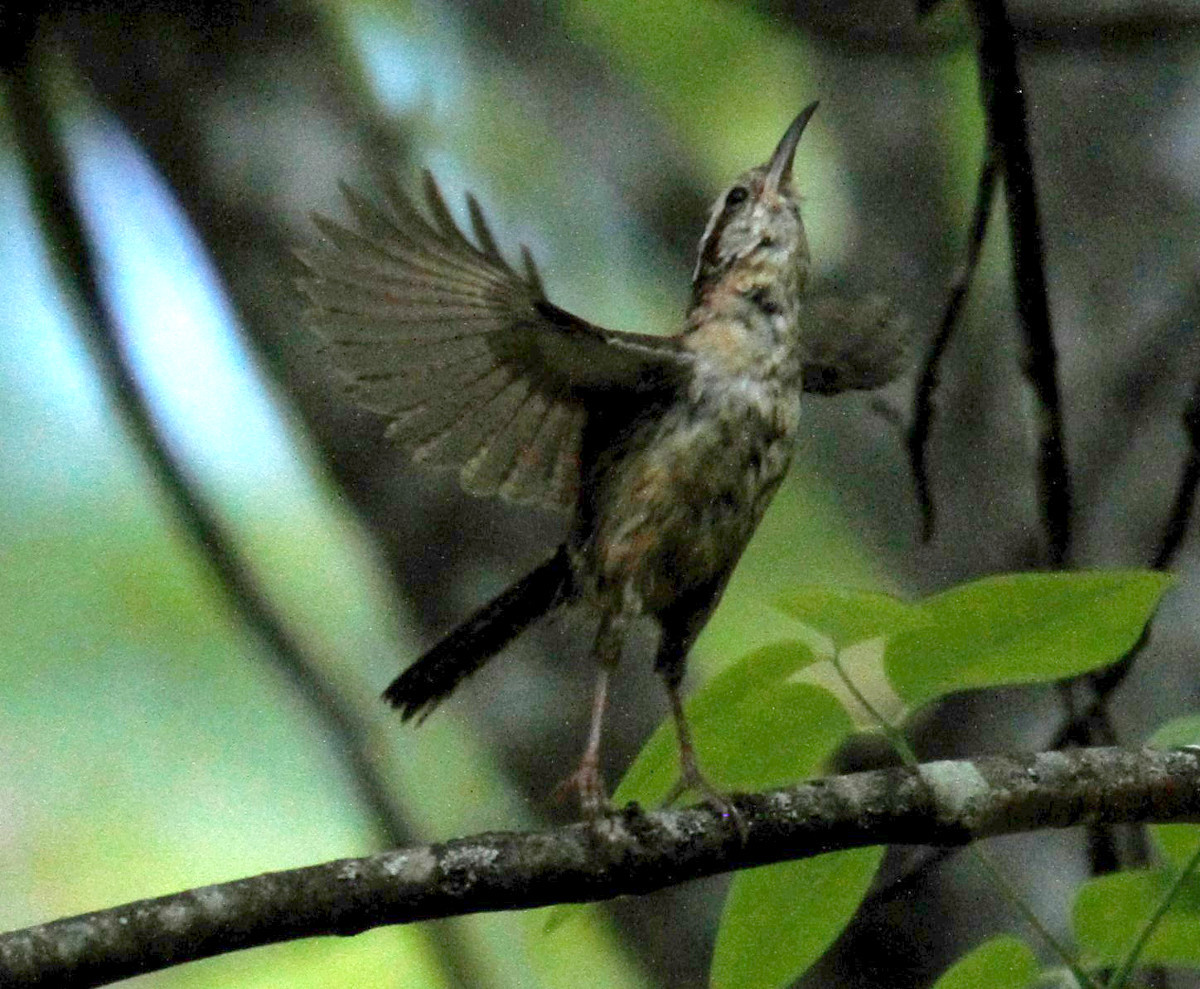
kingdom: Animalia
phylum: Chordata
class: Aves
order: Passeriformes
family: Troglodytidae
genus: Thryothorus
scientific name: Thryothorus ludovicianus
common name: Carolina wren
